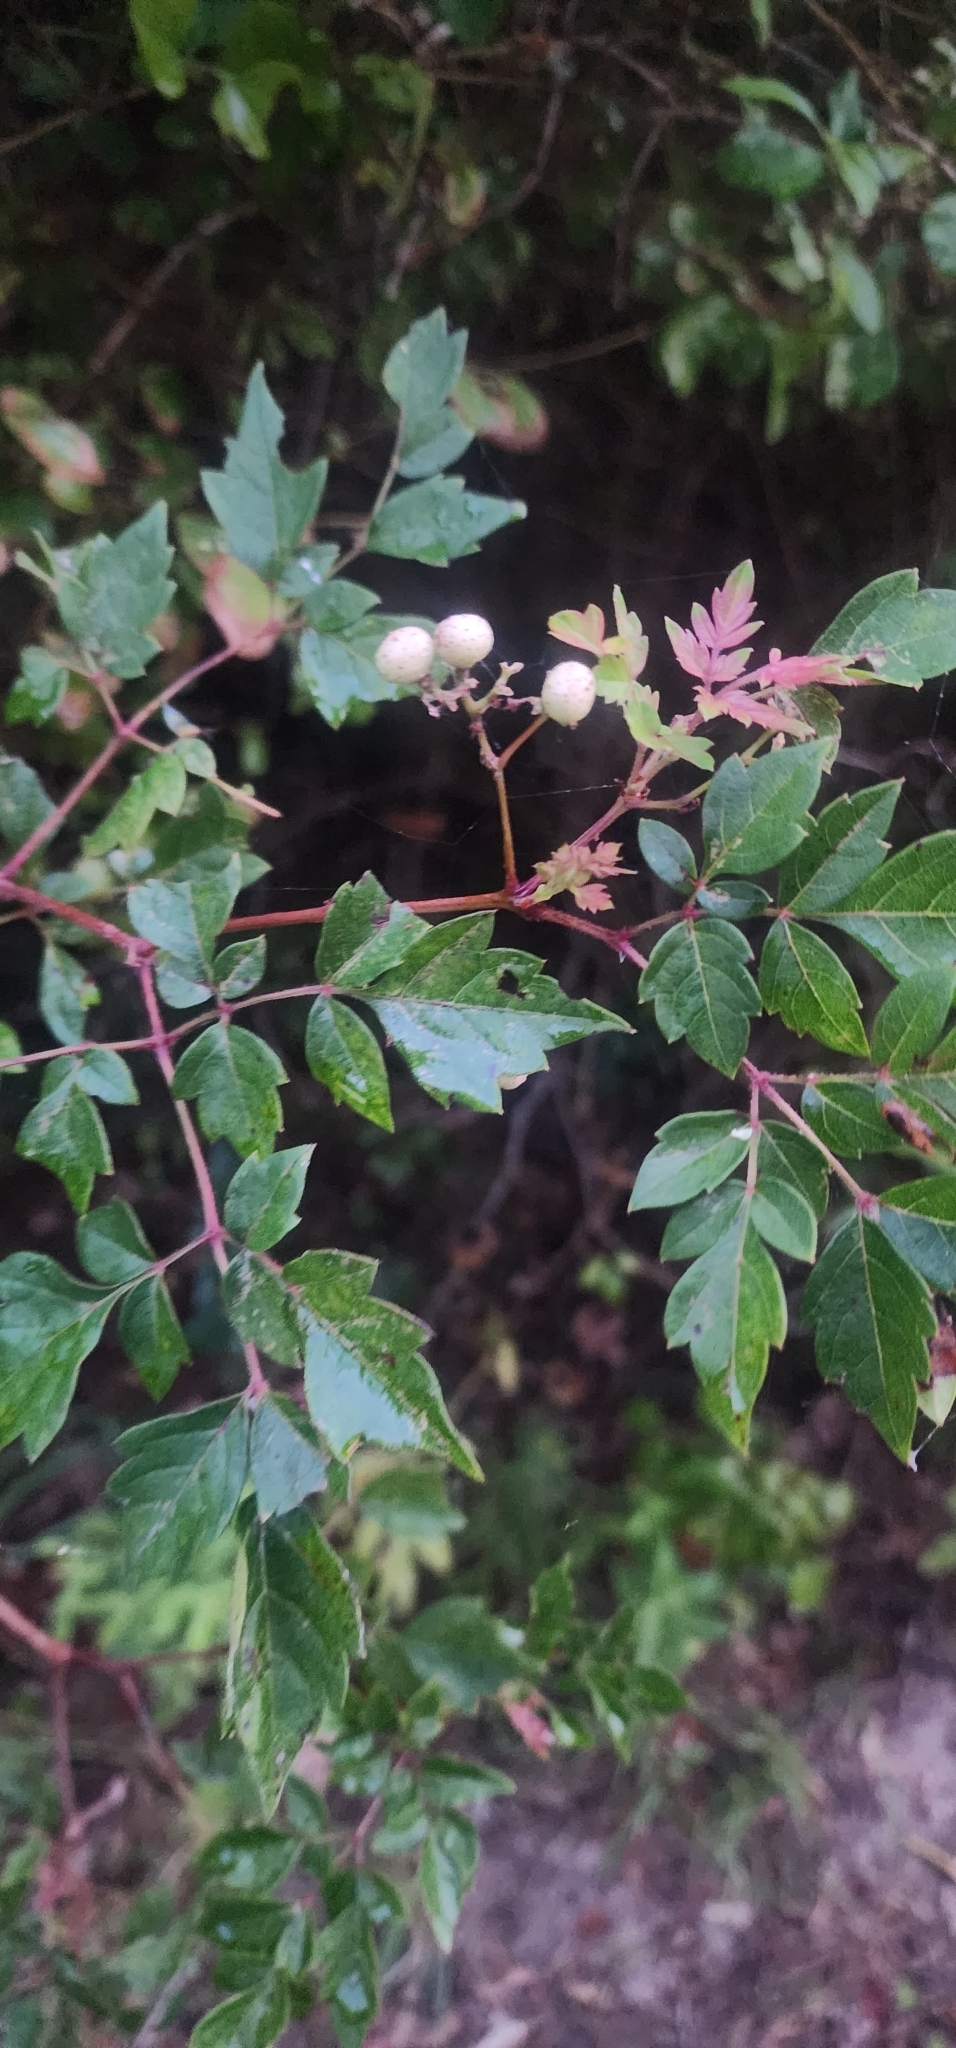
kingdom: Plantae
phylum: Tracheophyta
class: Magnoliopsida
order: Vitales
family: Vitaceae
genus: Nekemias
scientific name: Nekemias arborea
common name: Peppervine
